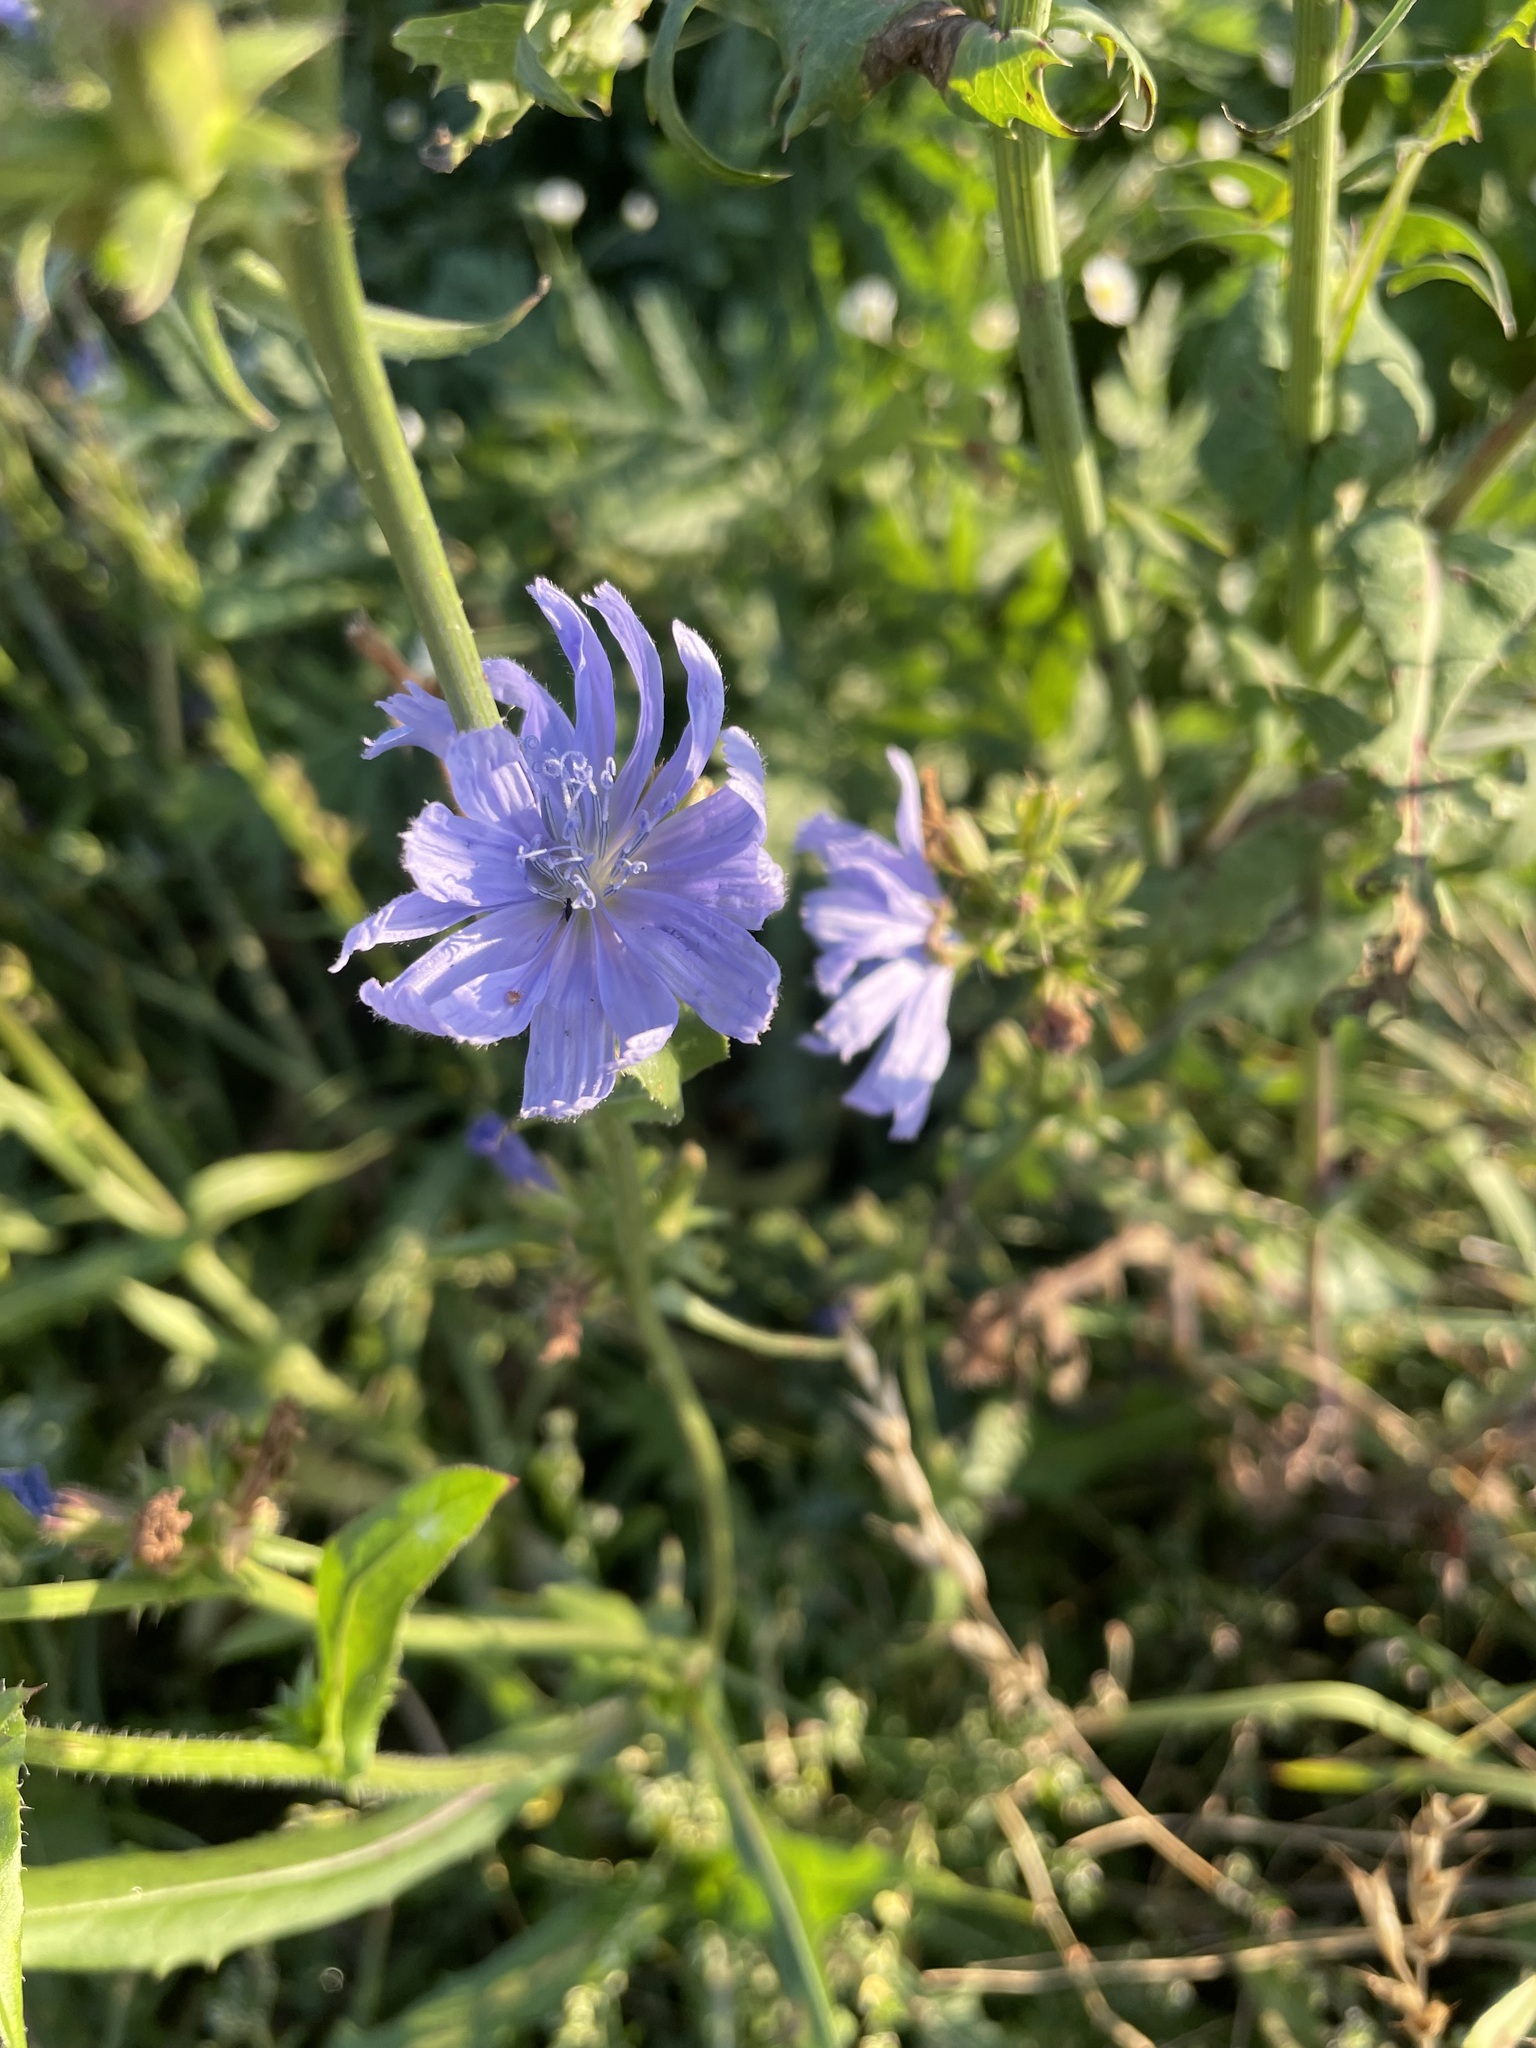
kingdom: Plantae
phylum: Tracheophyta
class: Magnoliopsida
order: Asterales
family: Asteraceae
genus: Cichorium
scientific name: Cichorium intybus
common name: Chicory
